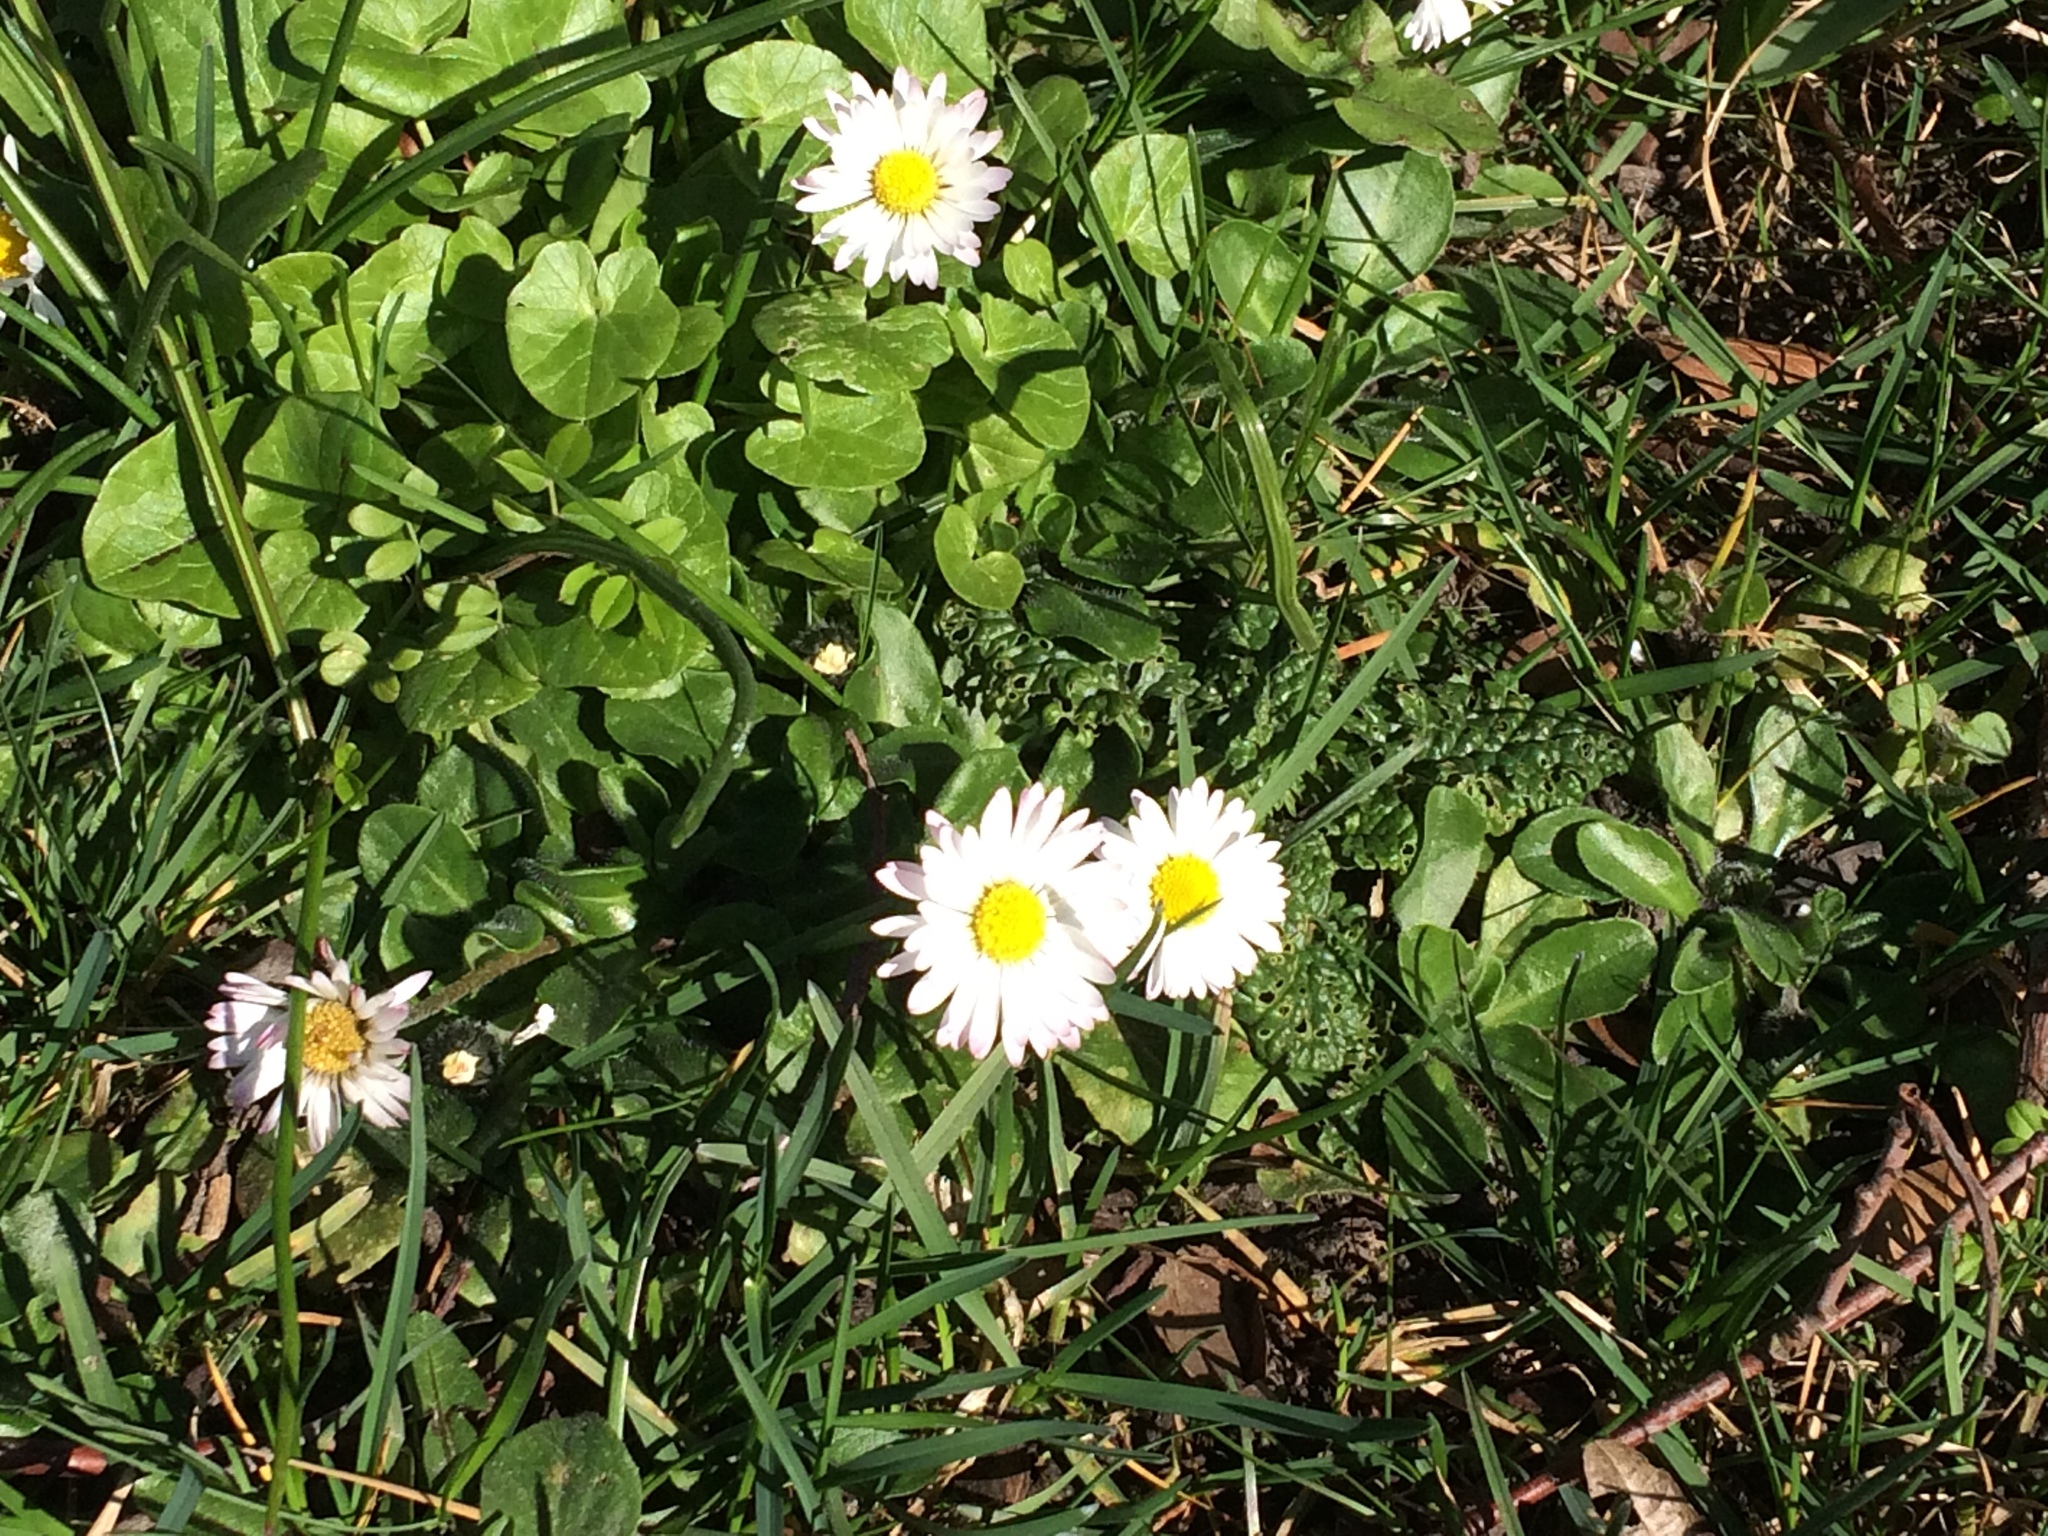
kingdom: Plantae
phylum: Tracheophyta
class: Magnoliopsida
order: Asterales
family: Asteraceae
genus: Bellis
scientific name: Bellis perennis
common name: Lawndaisy
